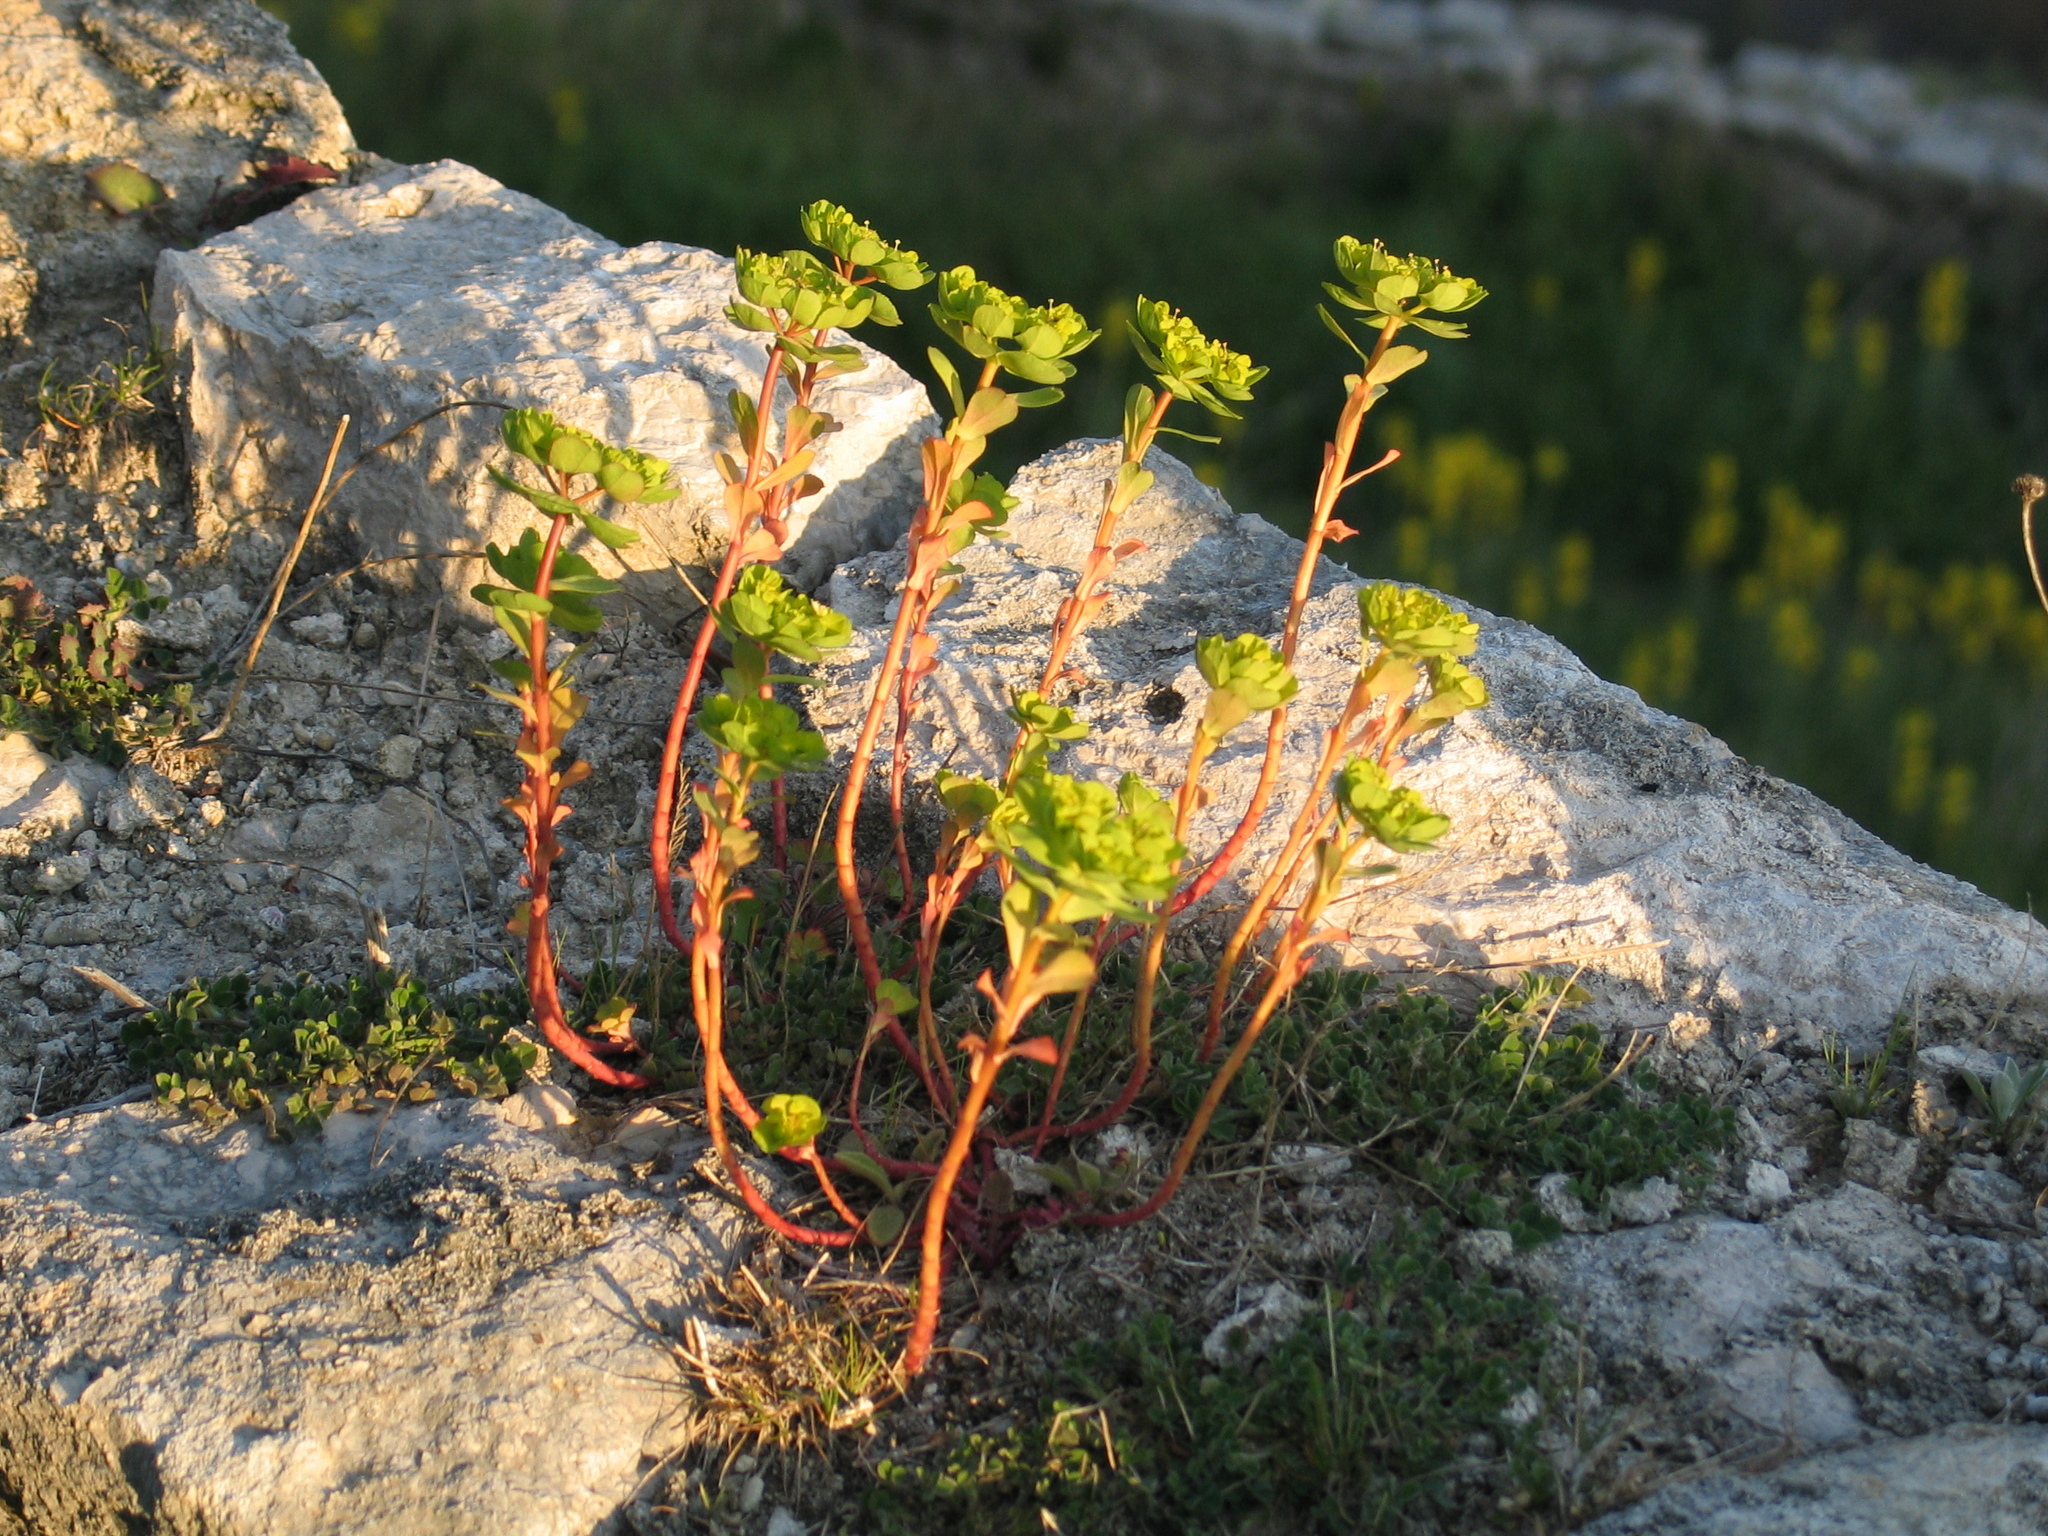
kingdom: Plantae
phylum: Tracheophyta
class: Magnoliopsida
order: Malpighiales
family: Euphorbiaceae
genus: Euphorbia
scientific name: Euphorbia helioscopia
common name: Sun spurge
